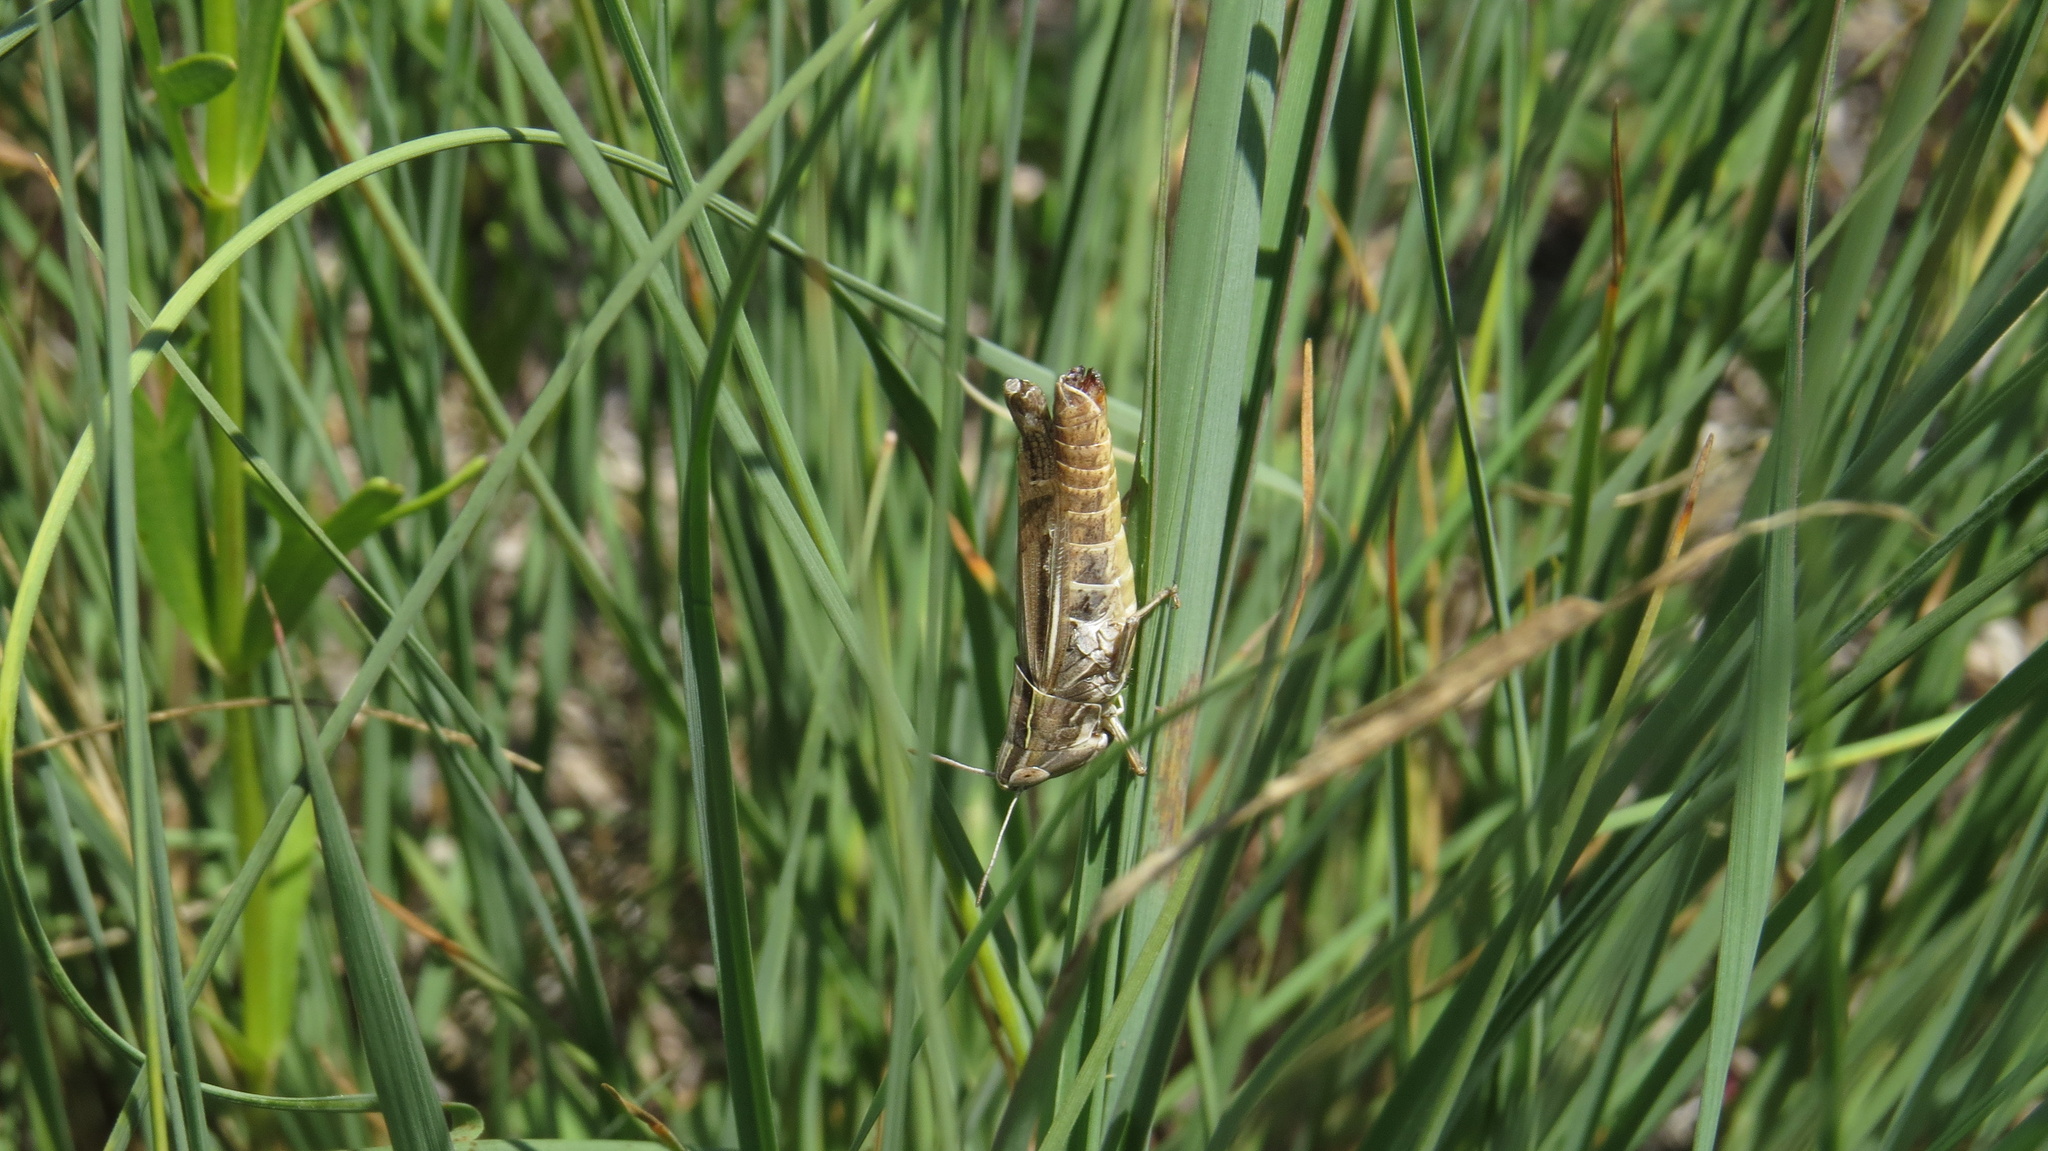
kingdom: Animalia
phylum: Arthropoda
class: Insecta
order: Orthoptera
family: Acrididae
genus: Eritettix
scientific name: Eritettix simplex
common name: Velvet-striped grasshopper
